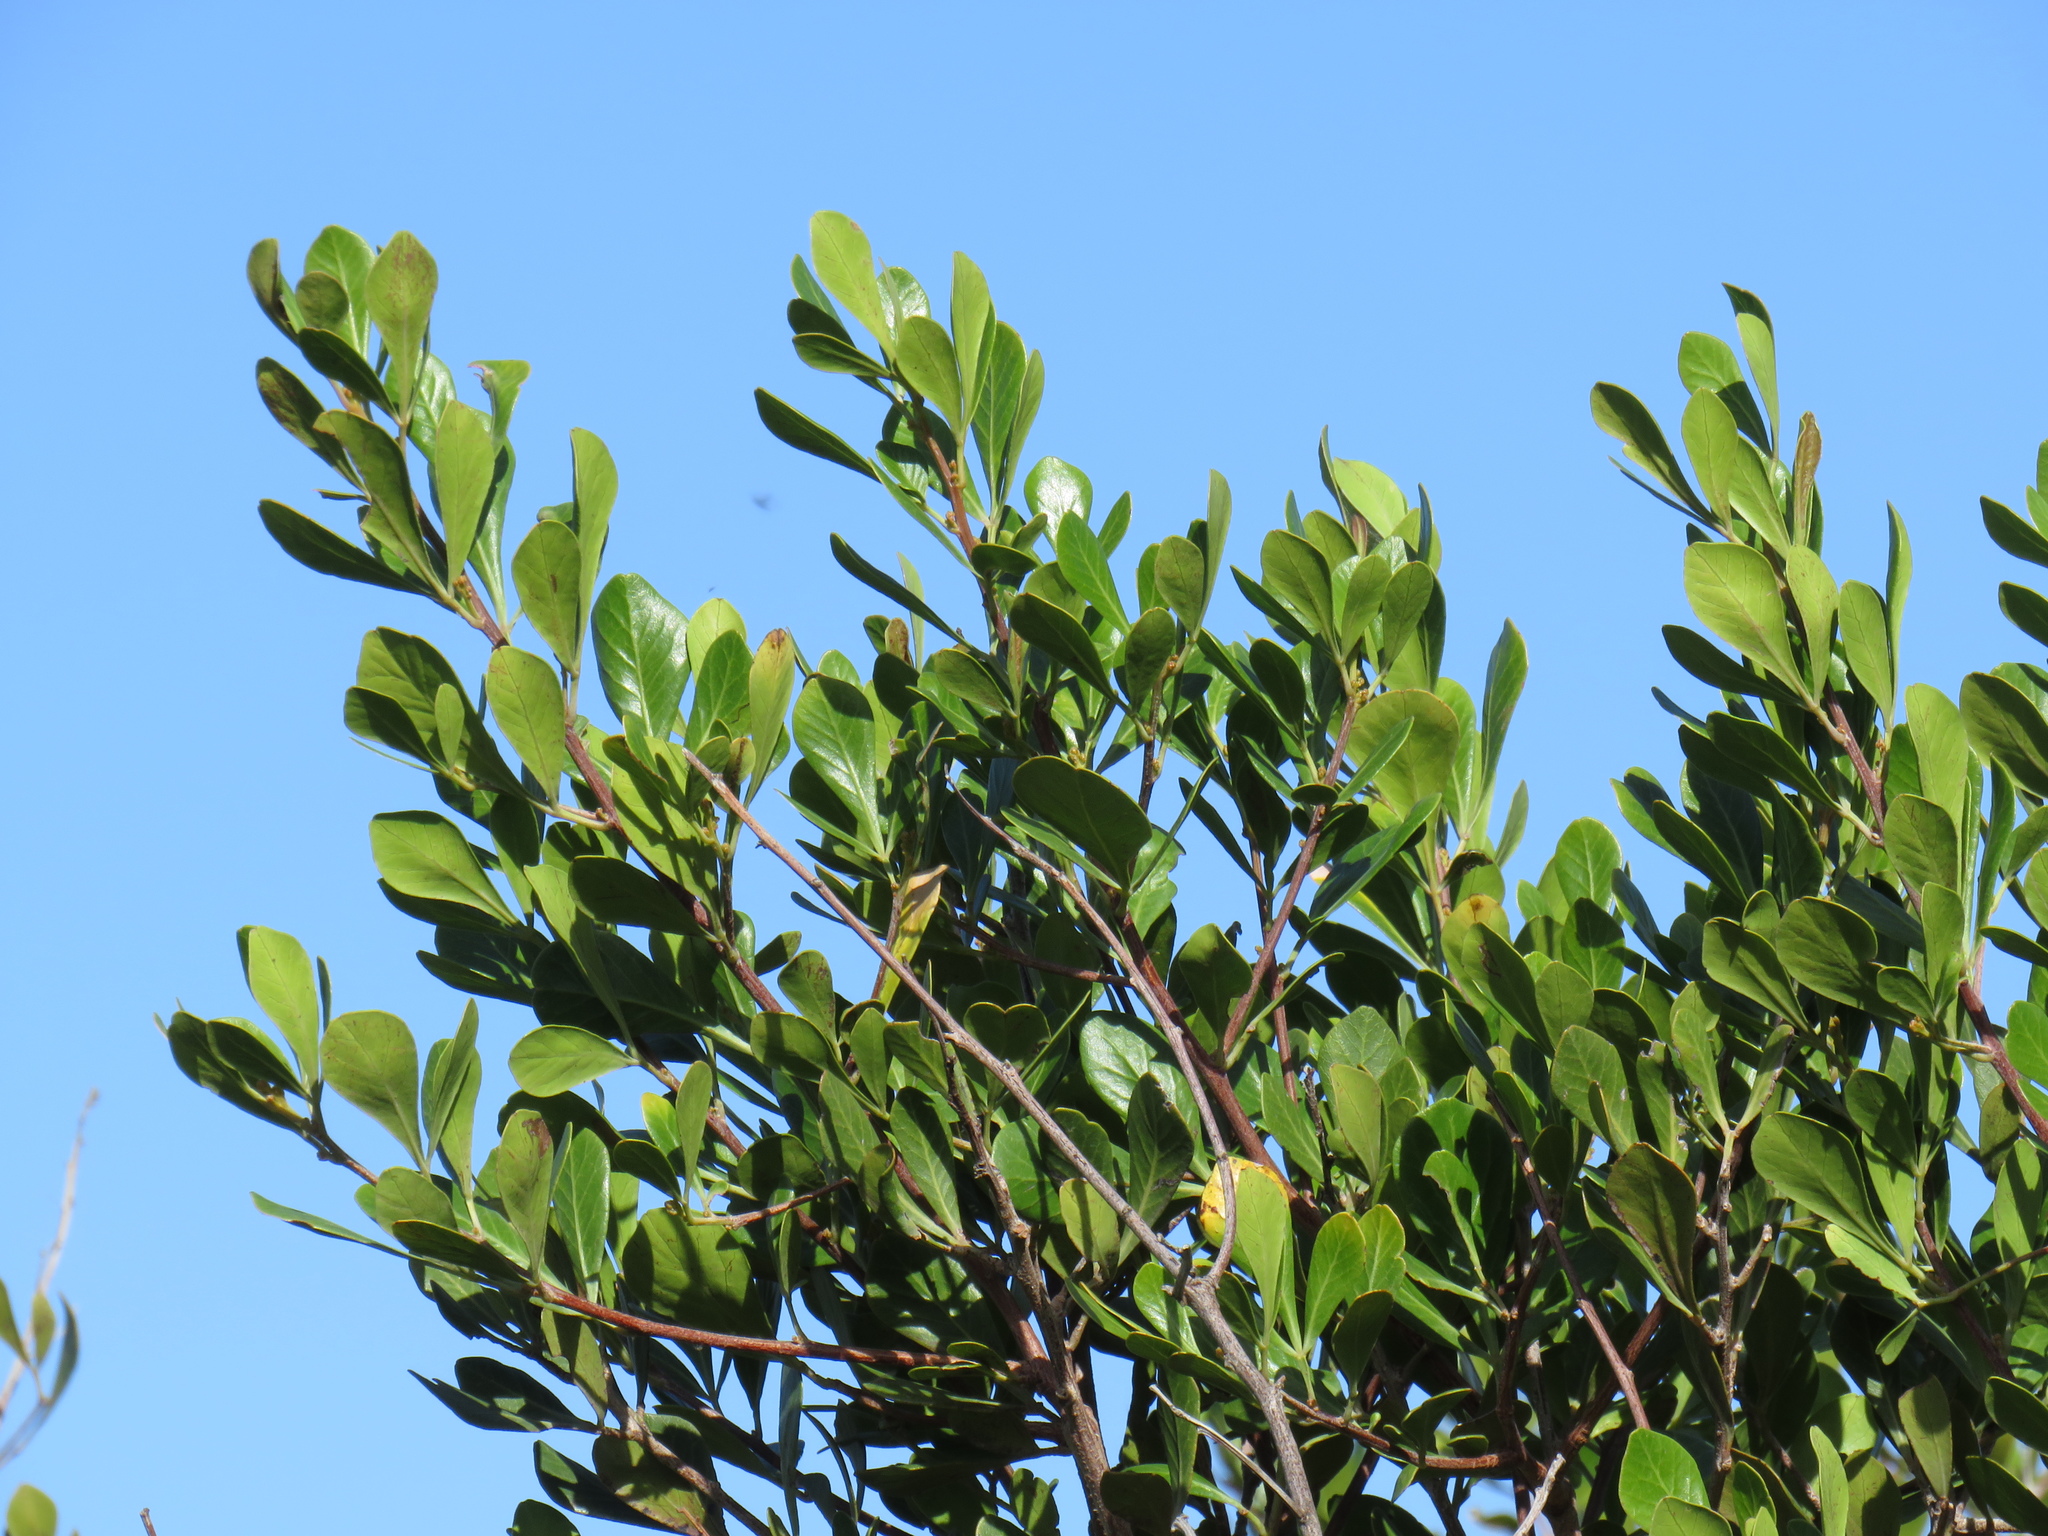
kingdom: Plantae
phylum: Tracheophyta
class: Magnoliopsida
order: Sapindales
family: Anacardiaceae
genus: Searsia
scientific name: Searsia lucida
